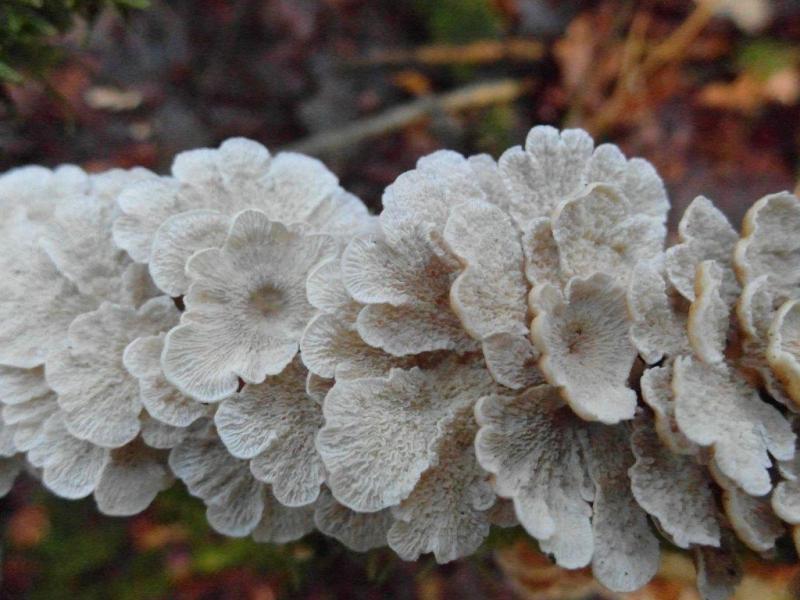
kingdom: Fungi
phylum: Basidiomycota
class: Agaricomycetes
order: Amylocorticiales
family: Amylocorticiaceae
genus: Plicaturopsis
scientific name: Plicaturopsis crispa
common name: Crimped gill
